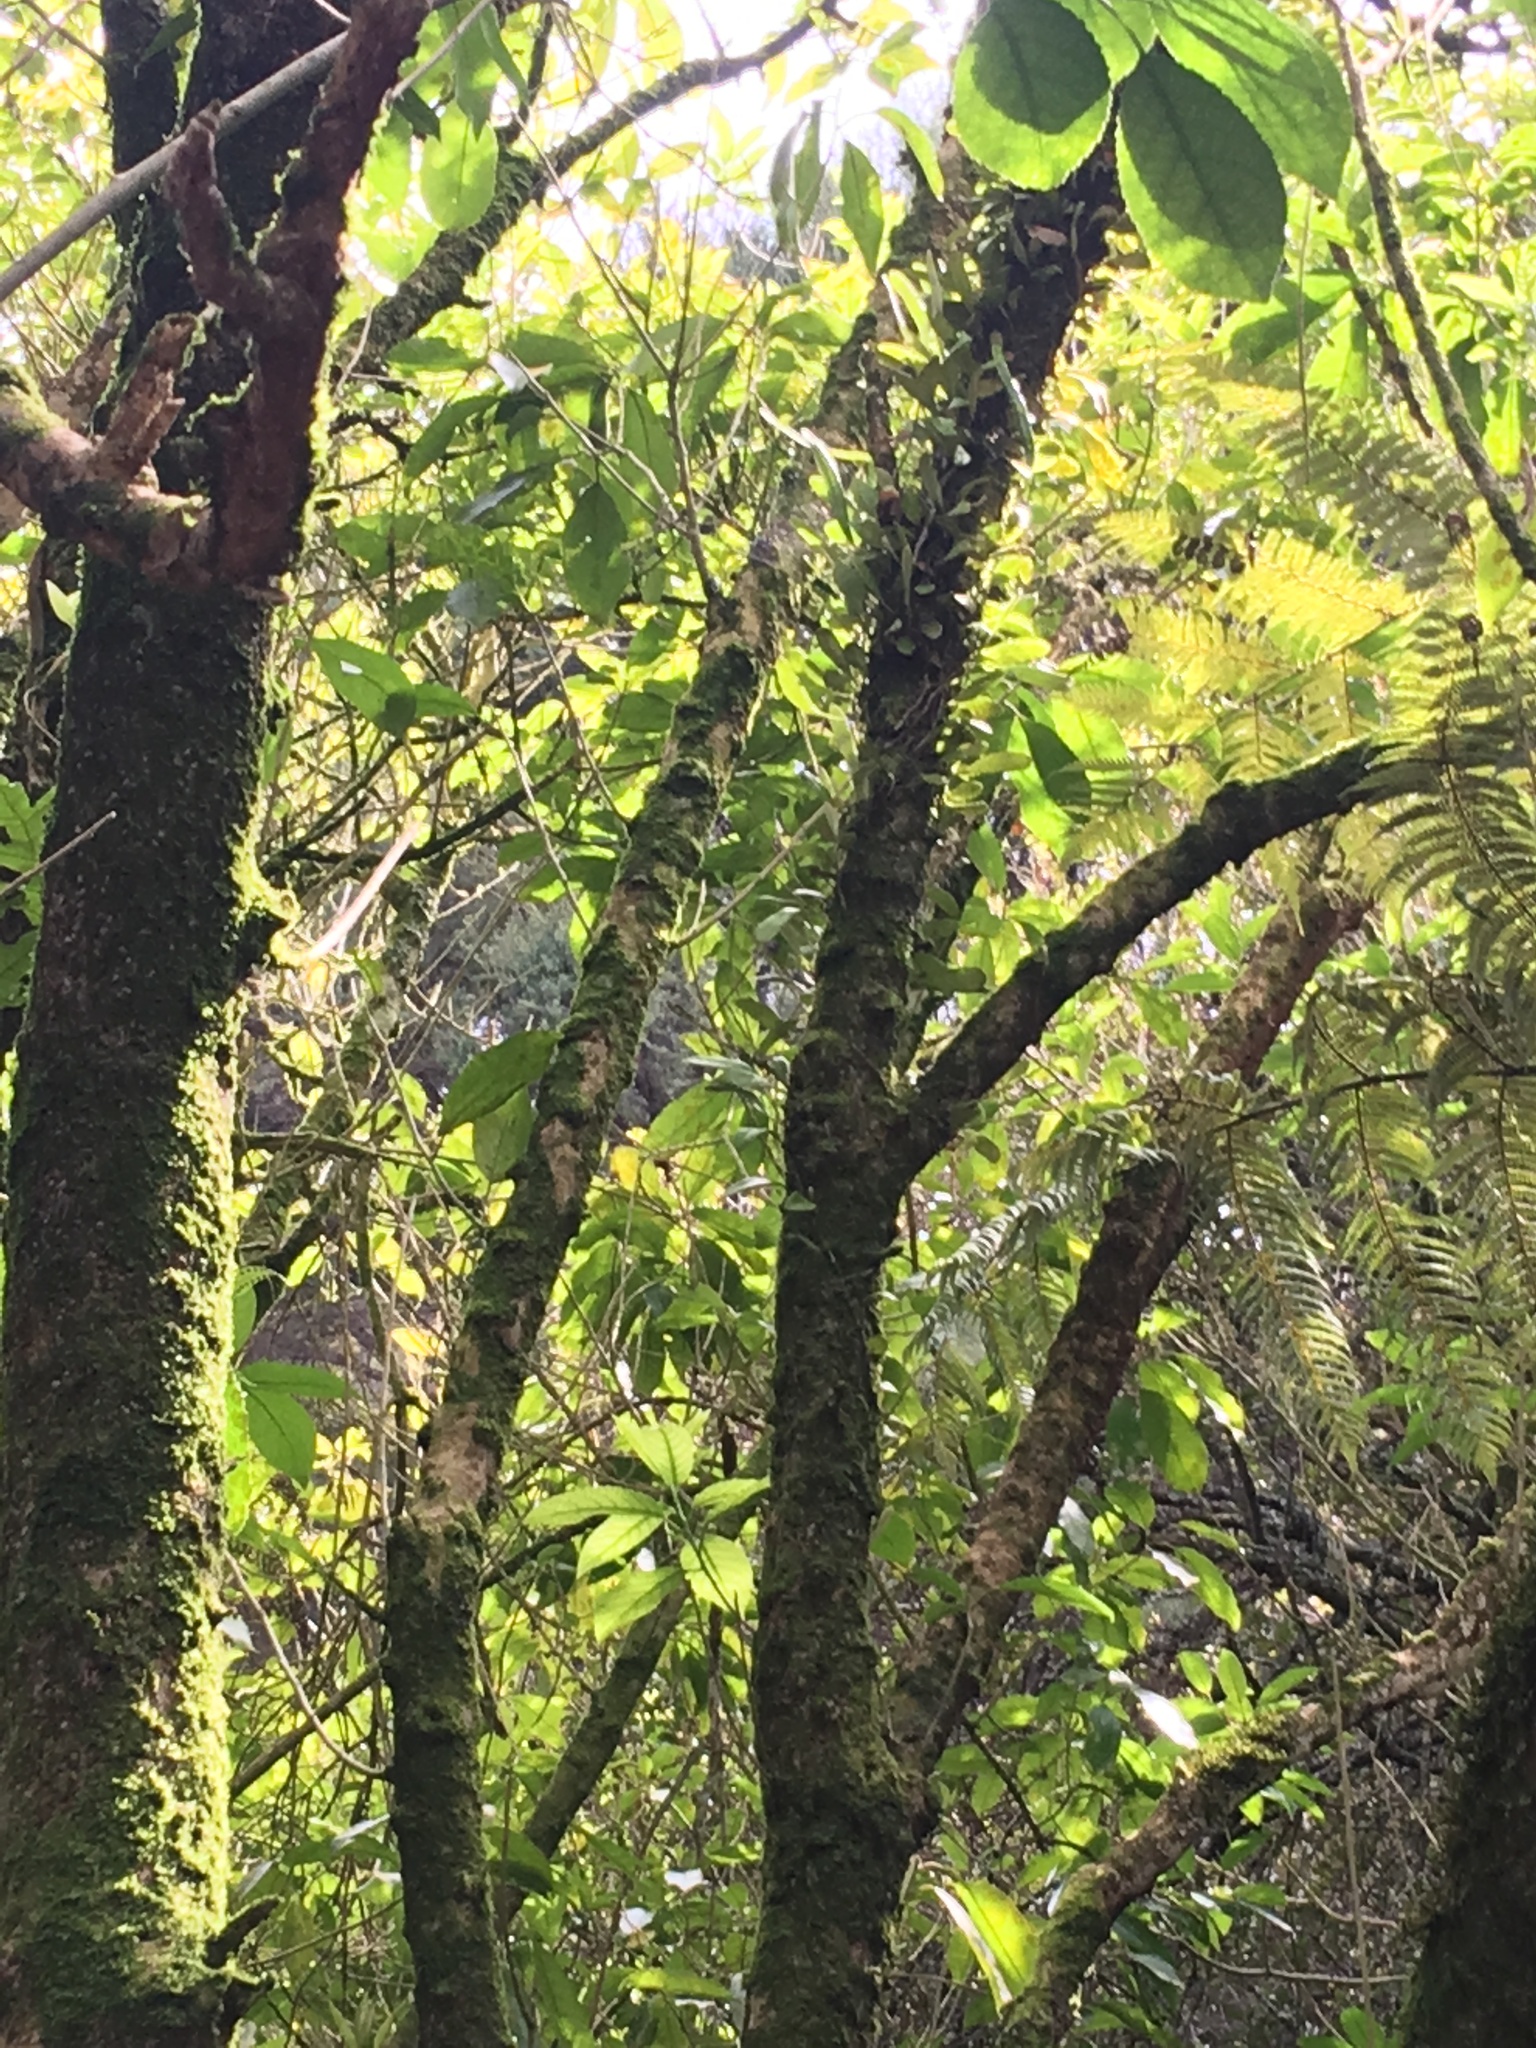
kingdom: Plantae
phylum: Tracheophyta
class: Polypodiopsida
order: Polypodiales
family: Polypodiaceae
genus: Pyrrosia
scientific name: Pyrrosia eleagnifolia
